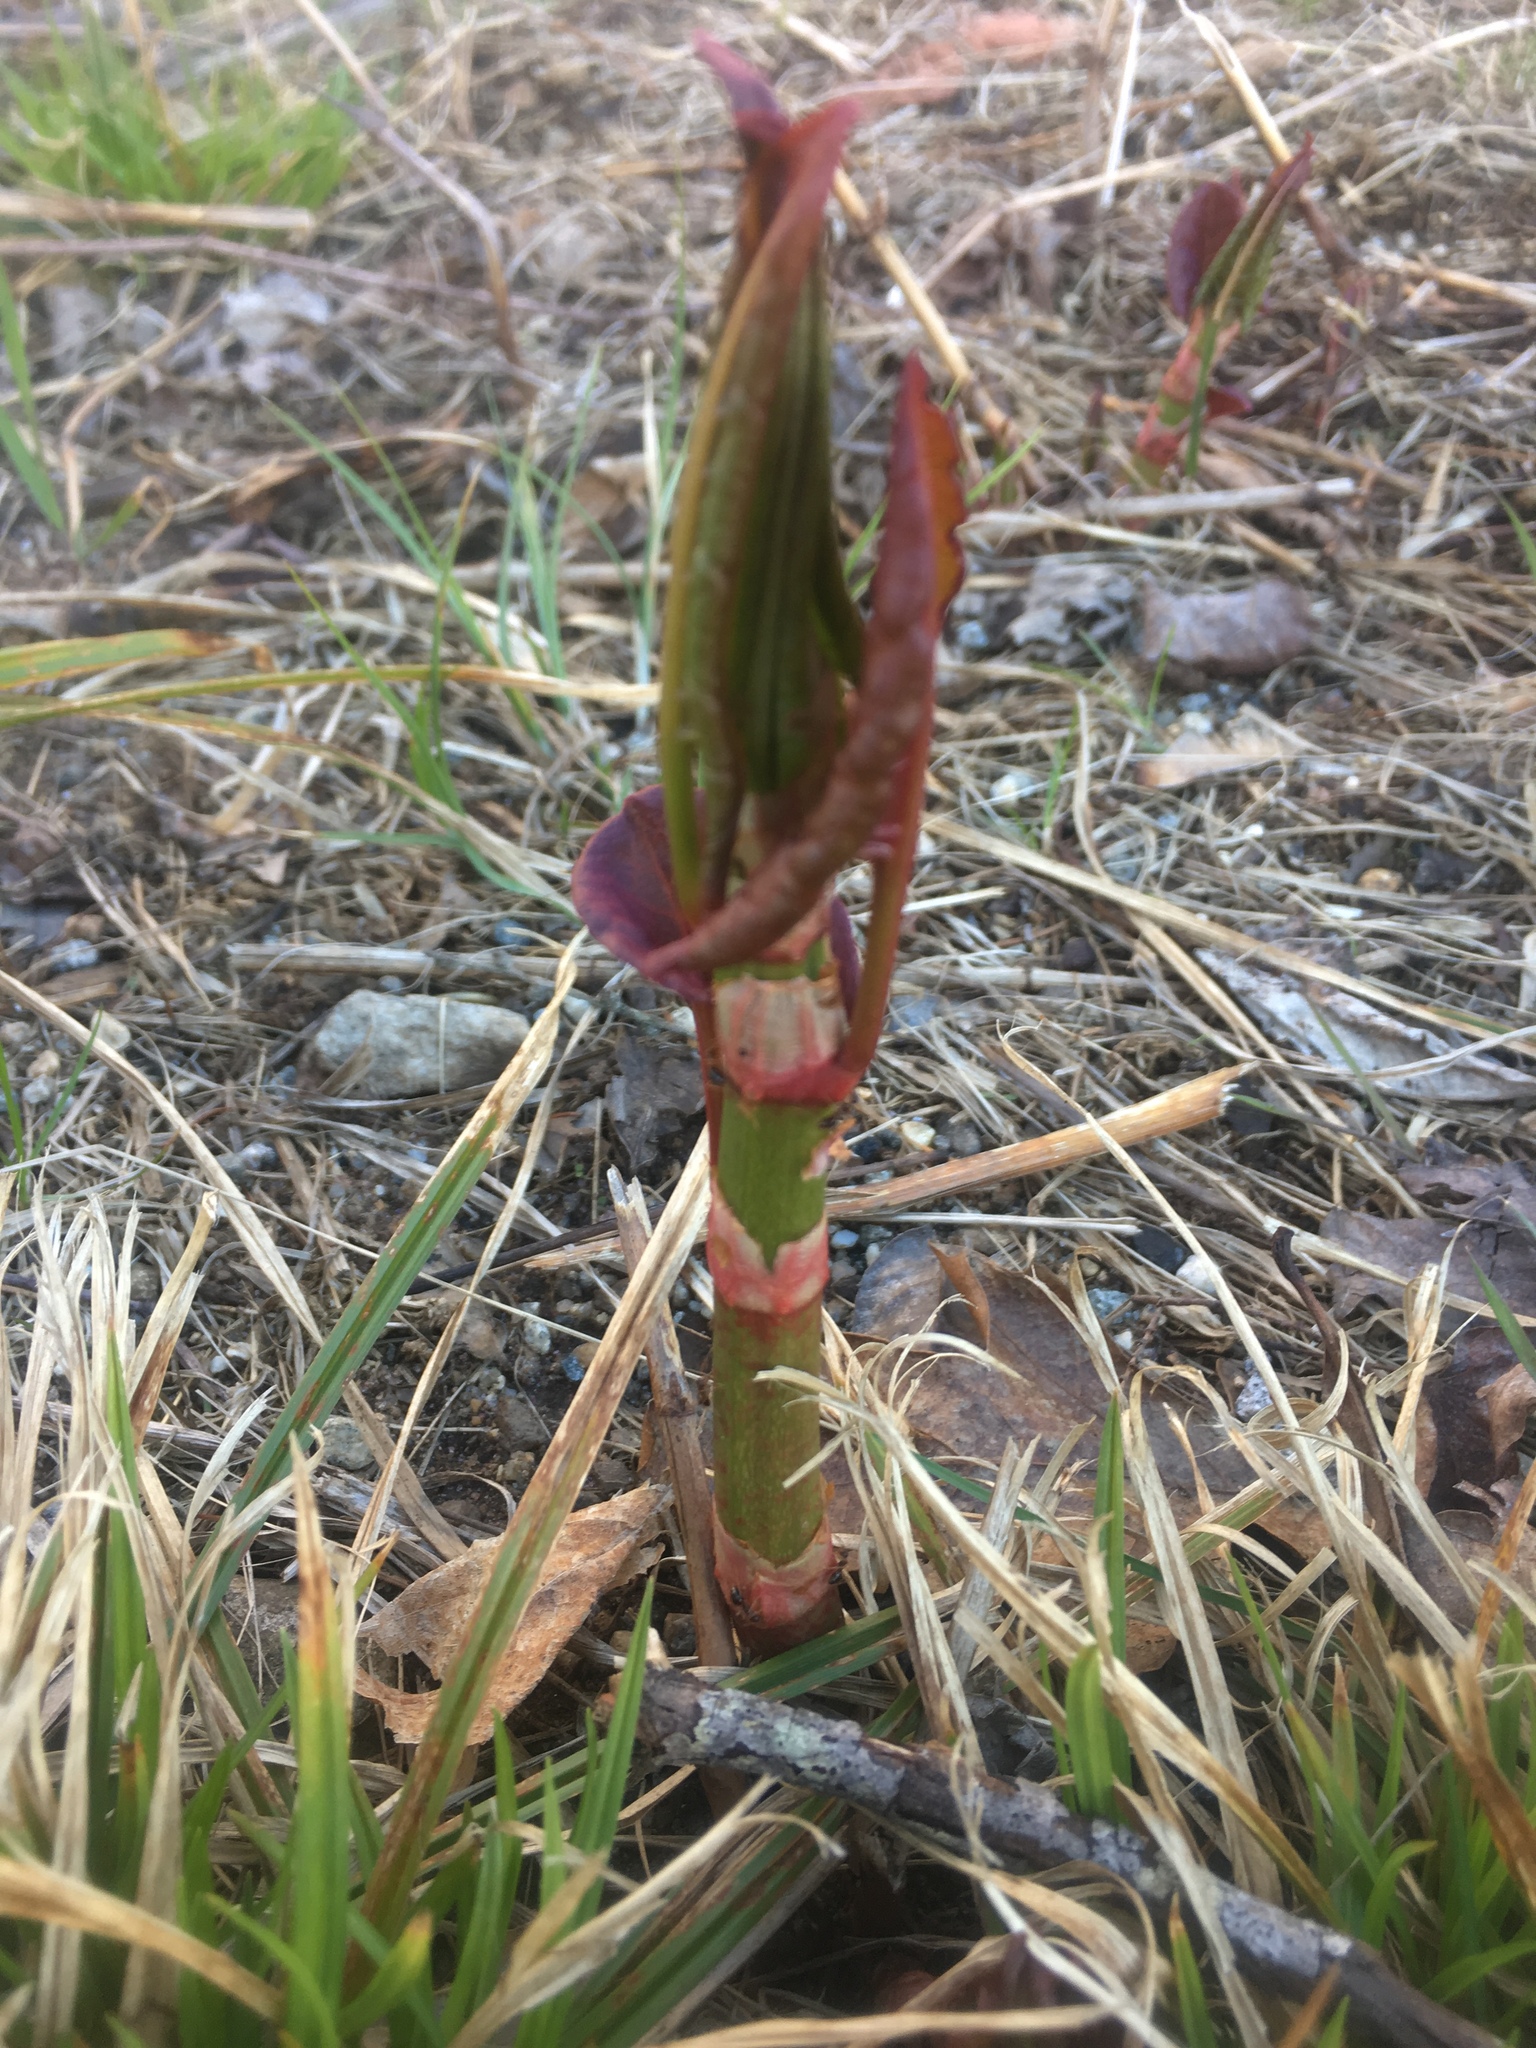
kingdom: Plantae
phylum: Tracheophyta
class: Magnoliopsida
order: Caryophyllales
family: Polygonaceae
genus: Reynoutria
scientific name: Reynoutria japonica
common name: Japanese knotweed
